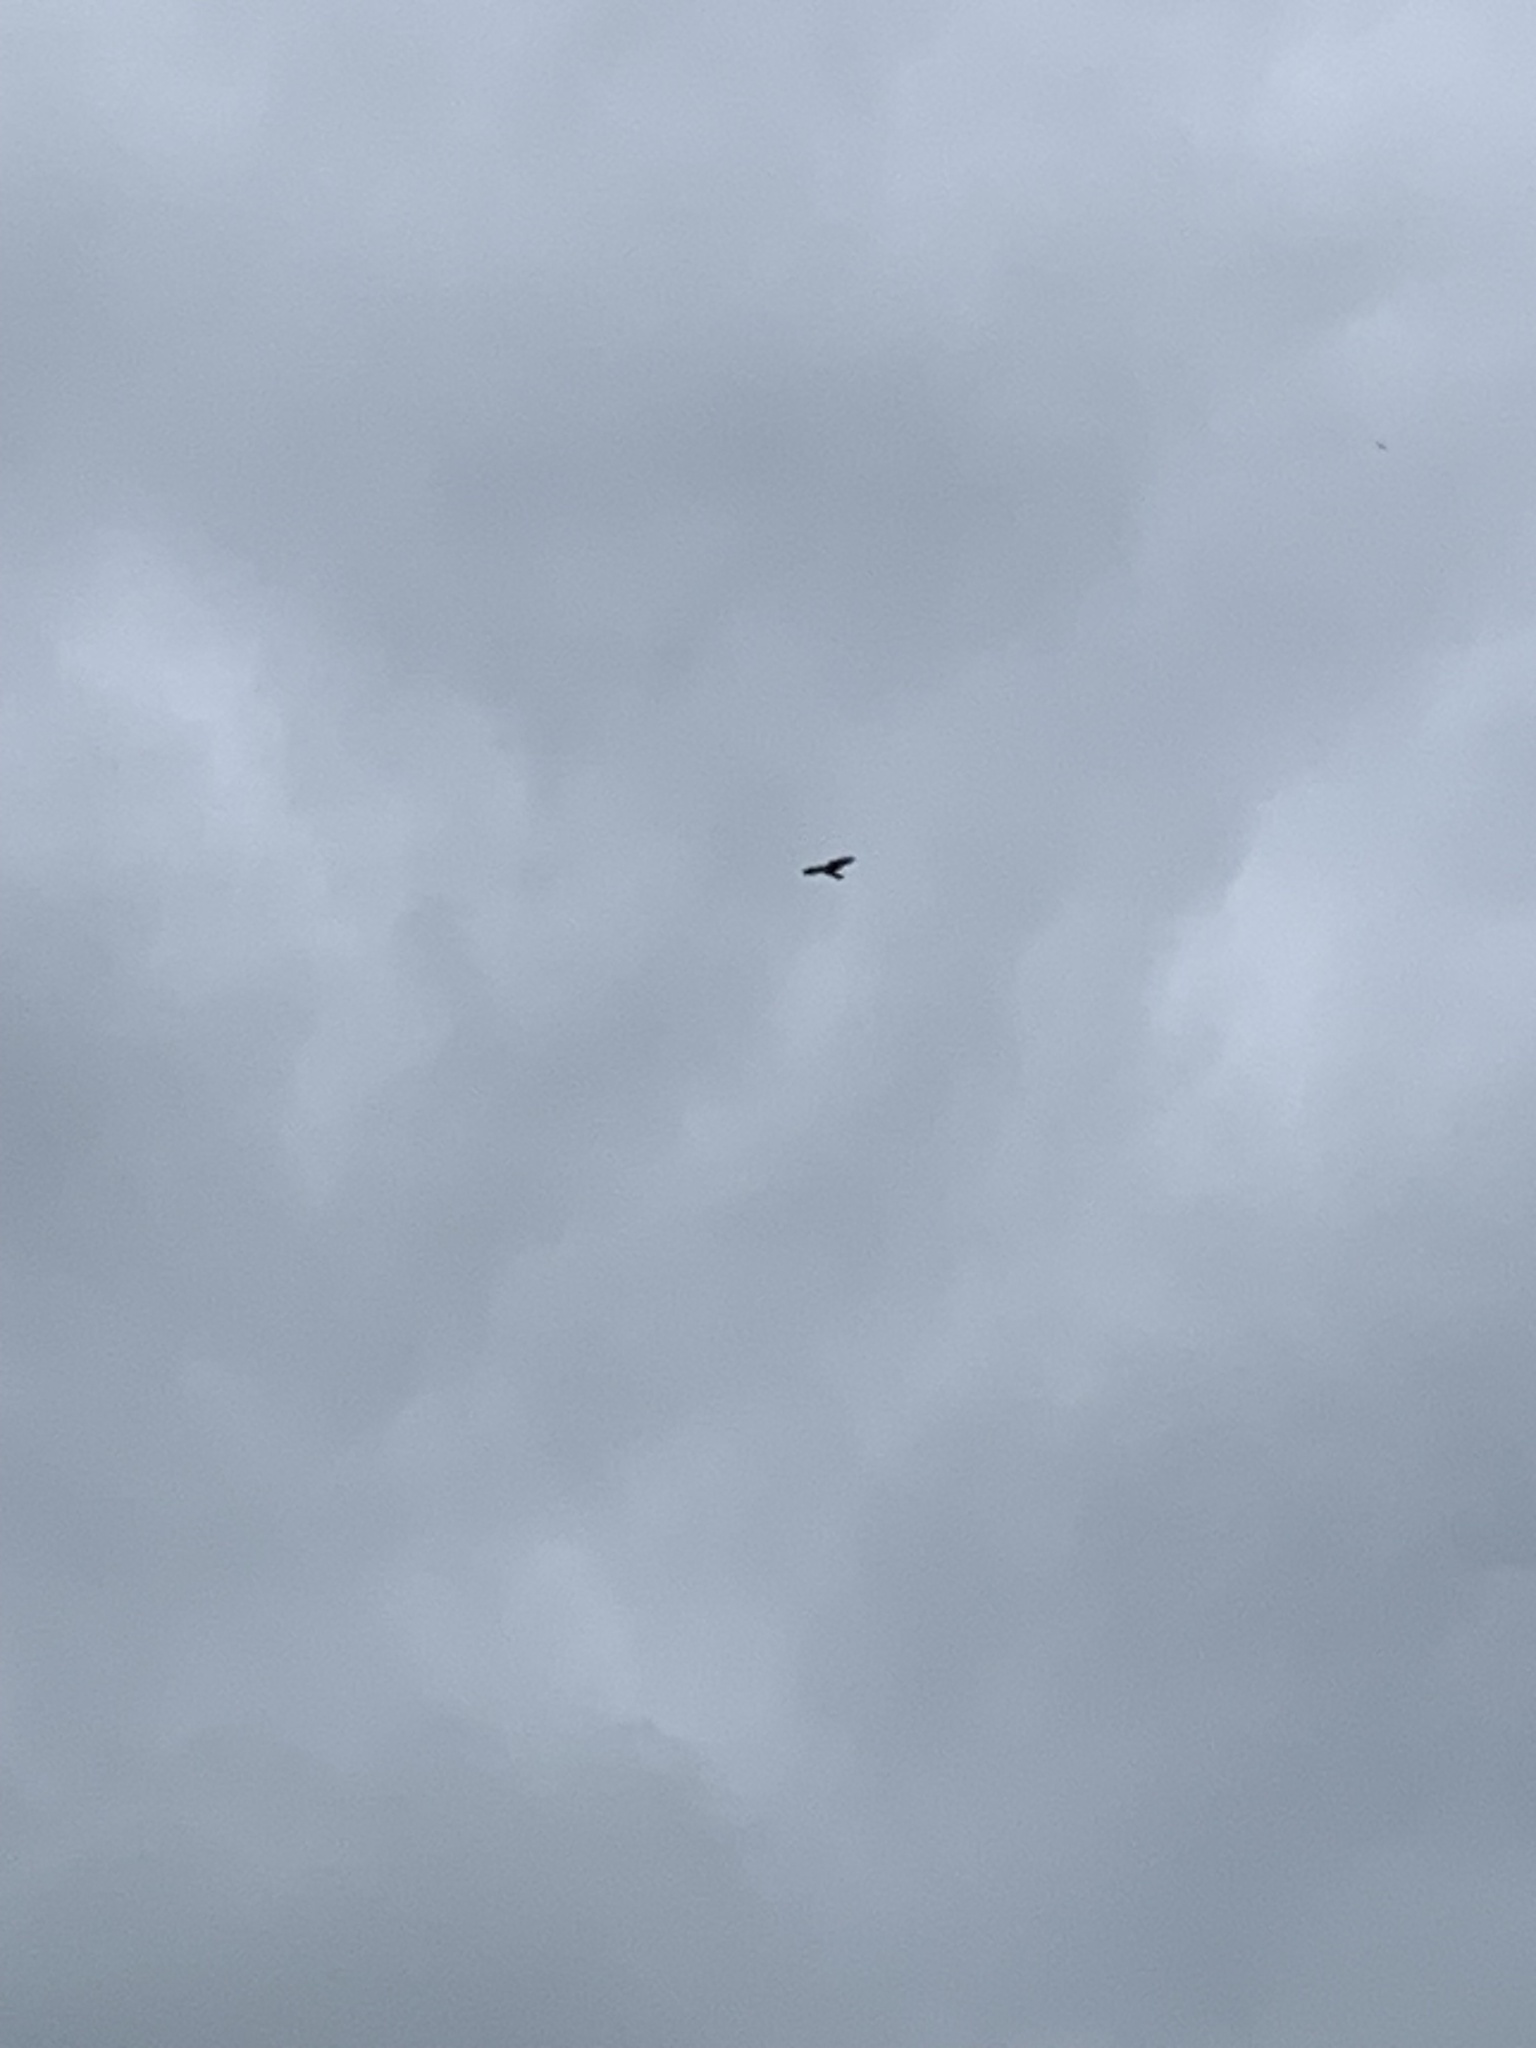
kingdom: Animalia
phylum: Chordata
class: Aves
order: Accipitriformes
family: Accipitridae
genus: Buteo
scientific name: Buteo buteo
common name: Common buzzard
